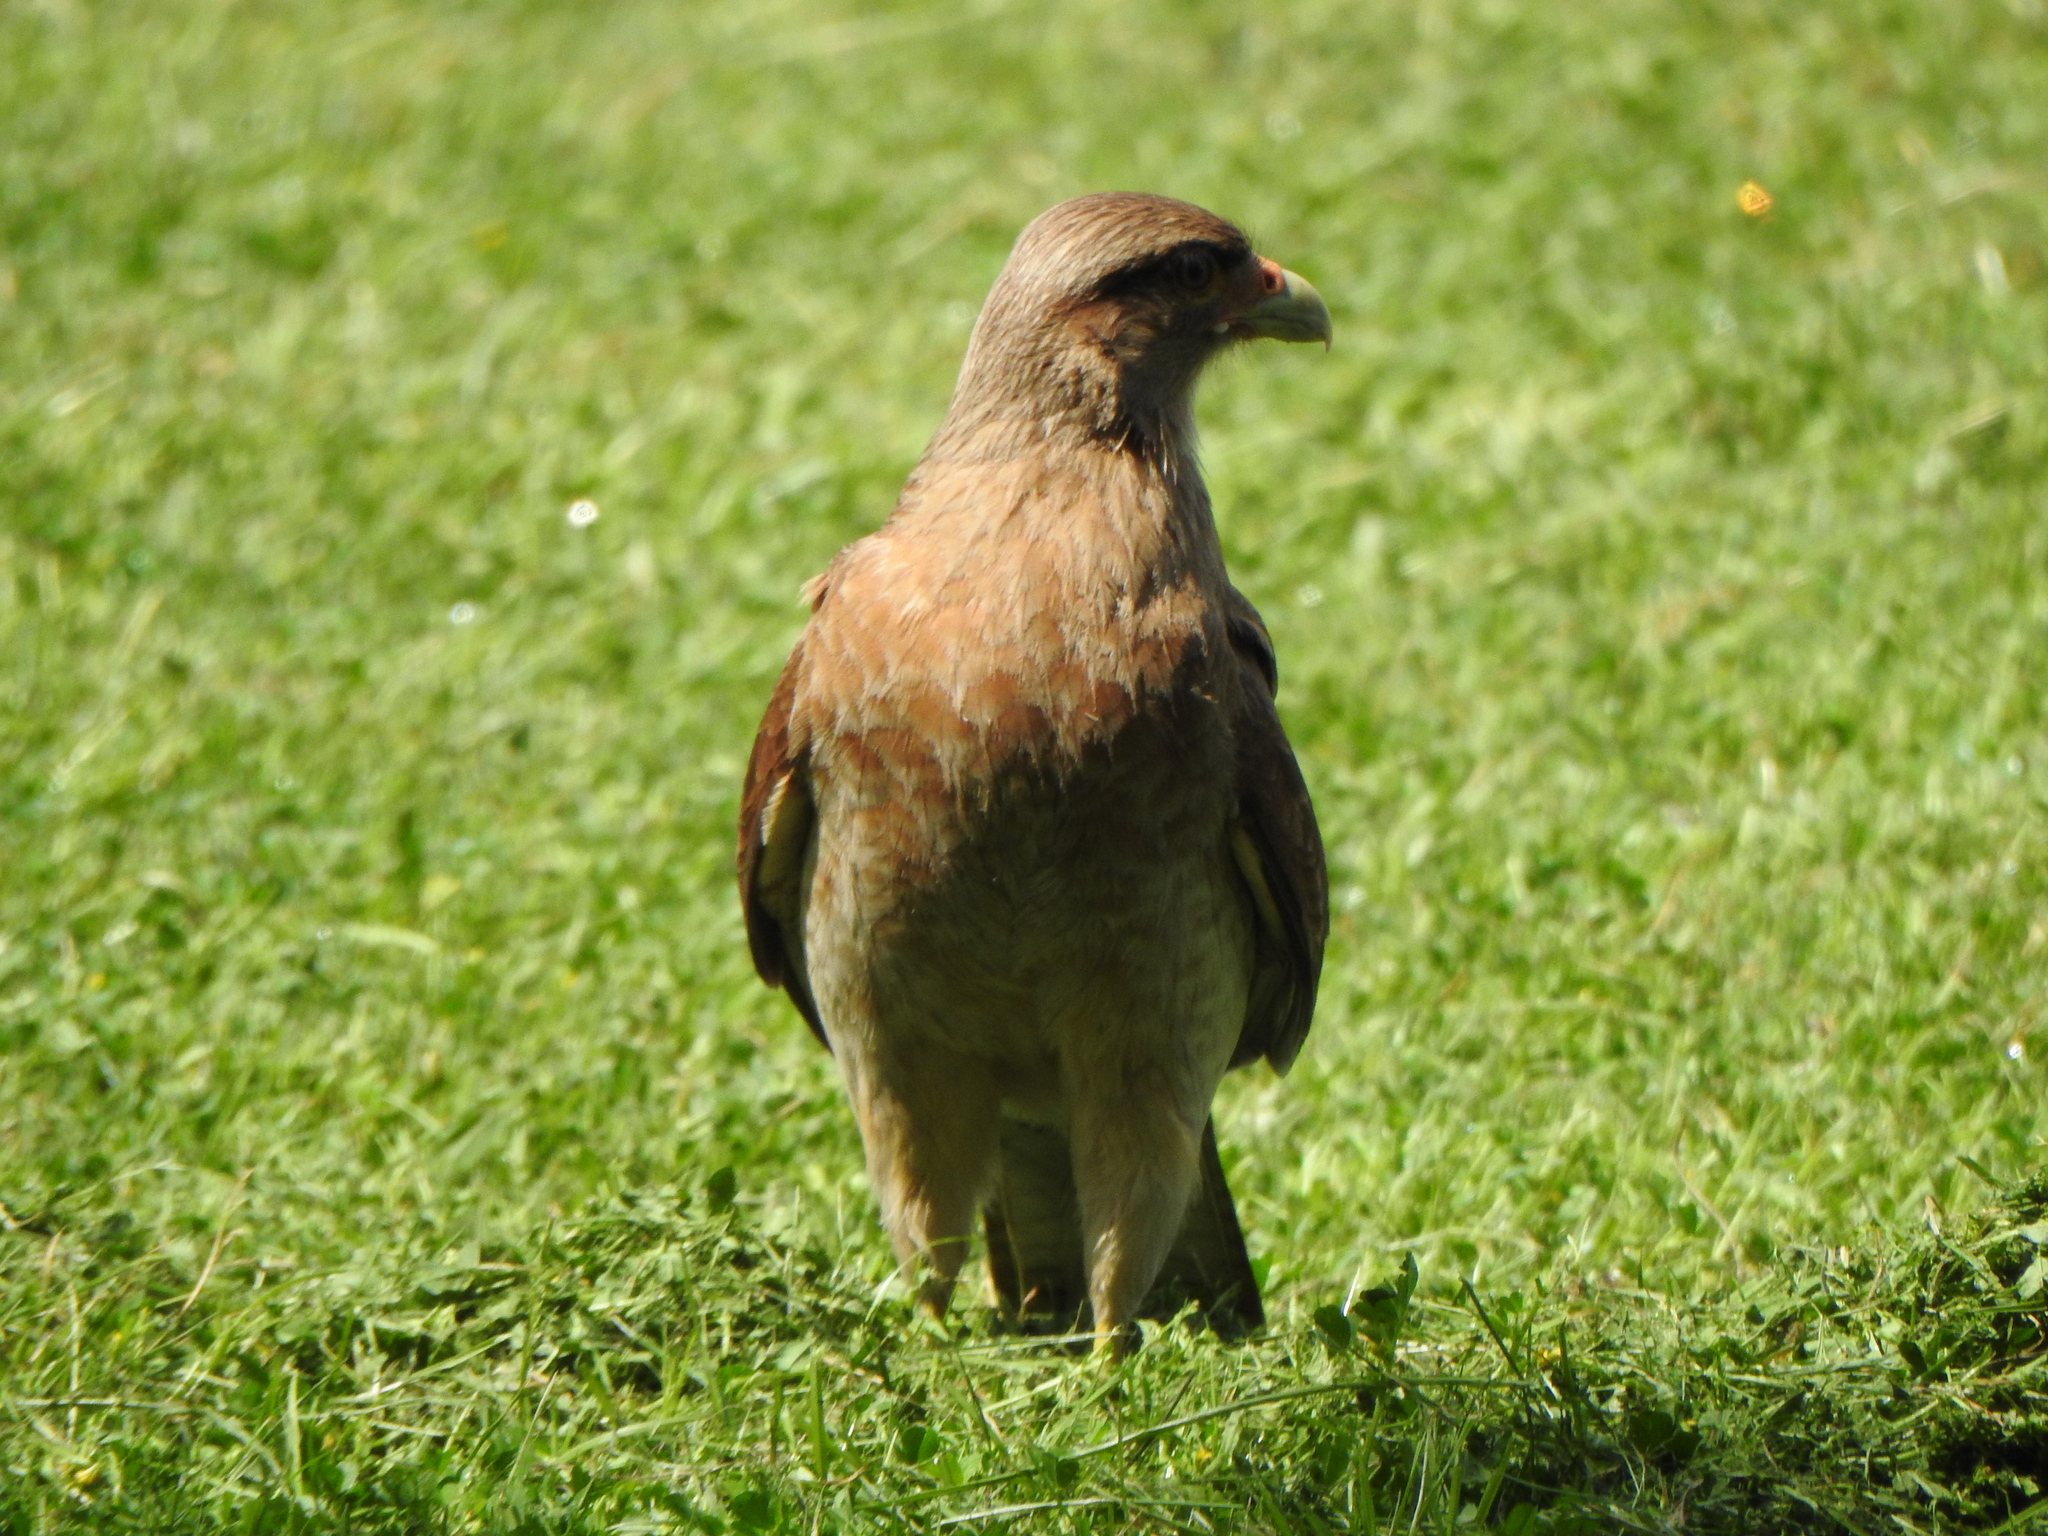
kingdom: Animalia
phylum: Chordata
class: Aves
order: Falconiformes
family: Falconidae
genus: Daptrius
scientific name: Daptrius
